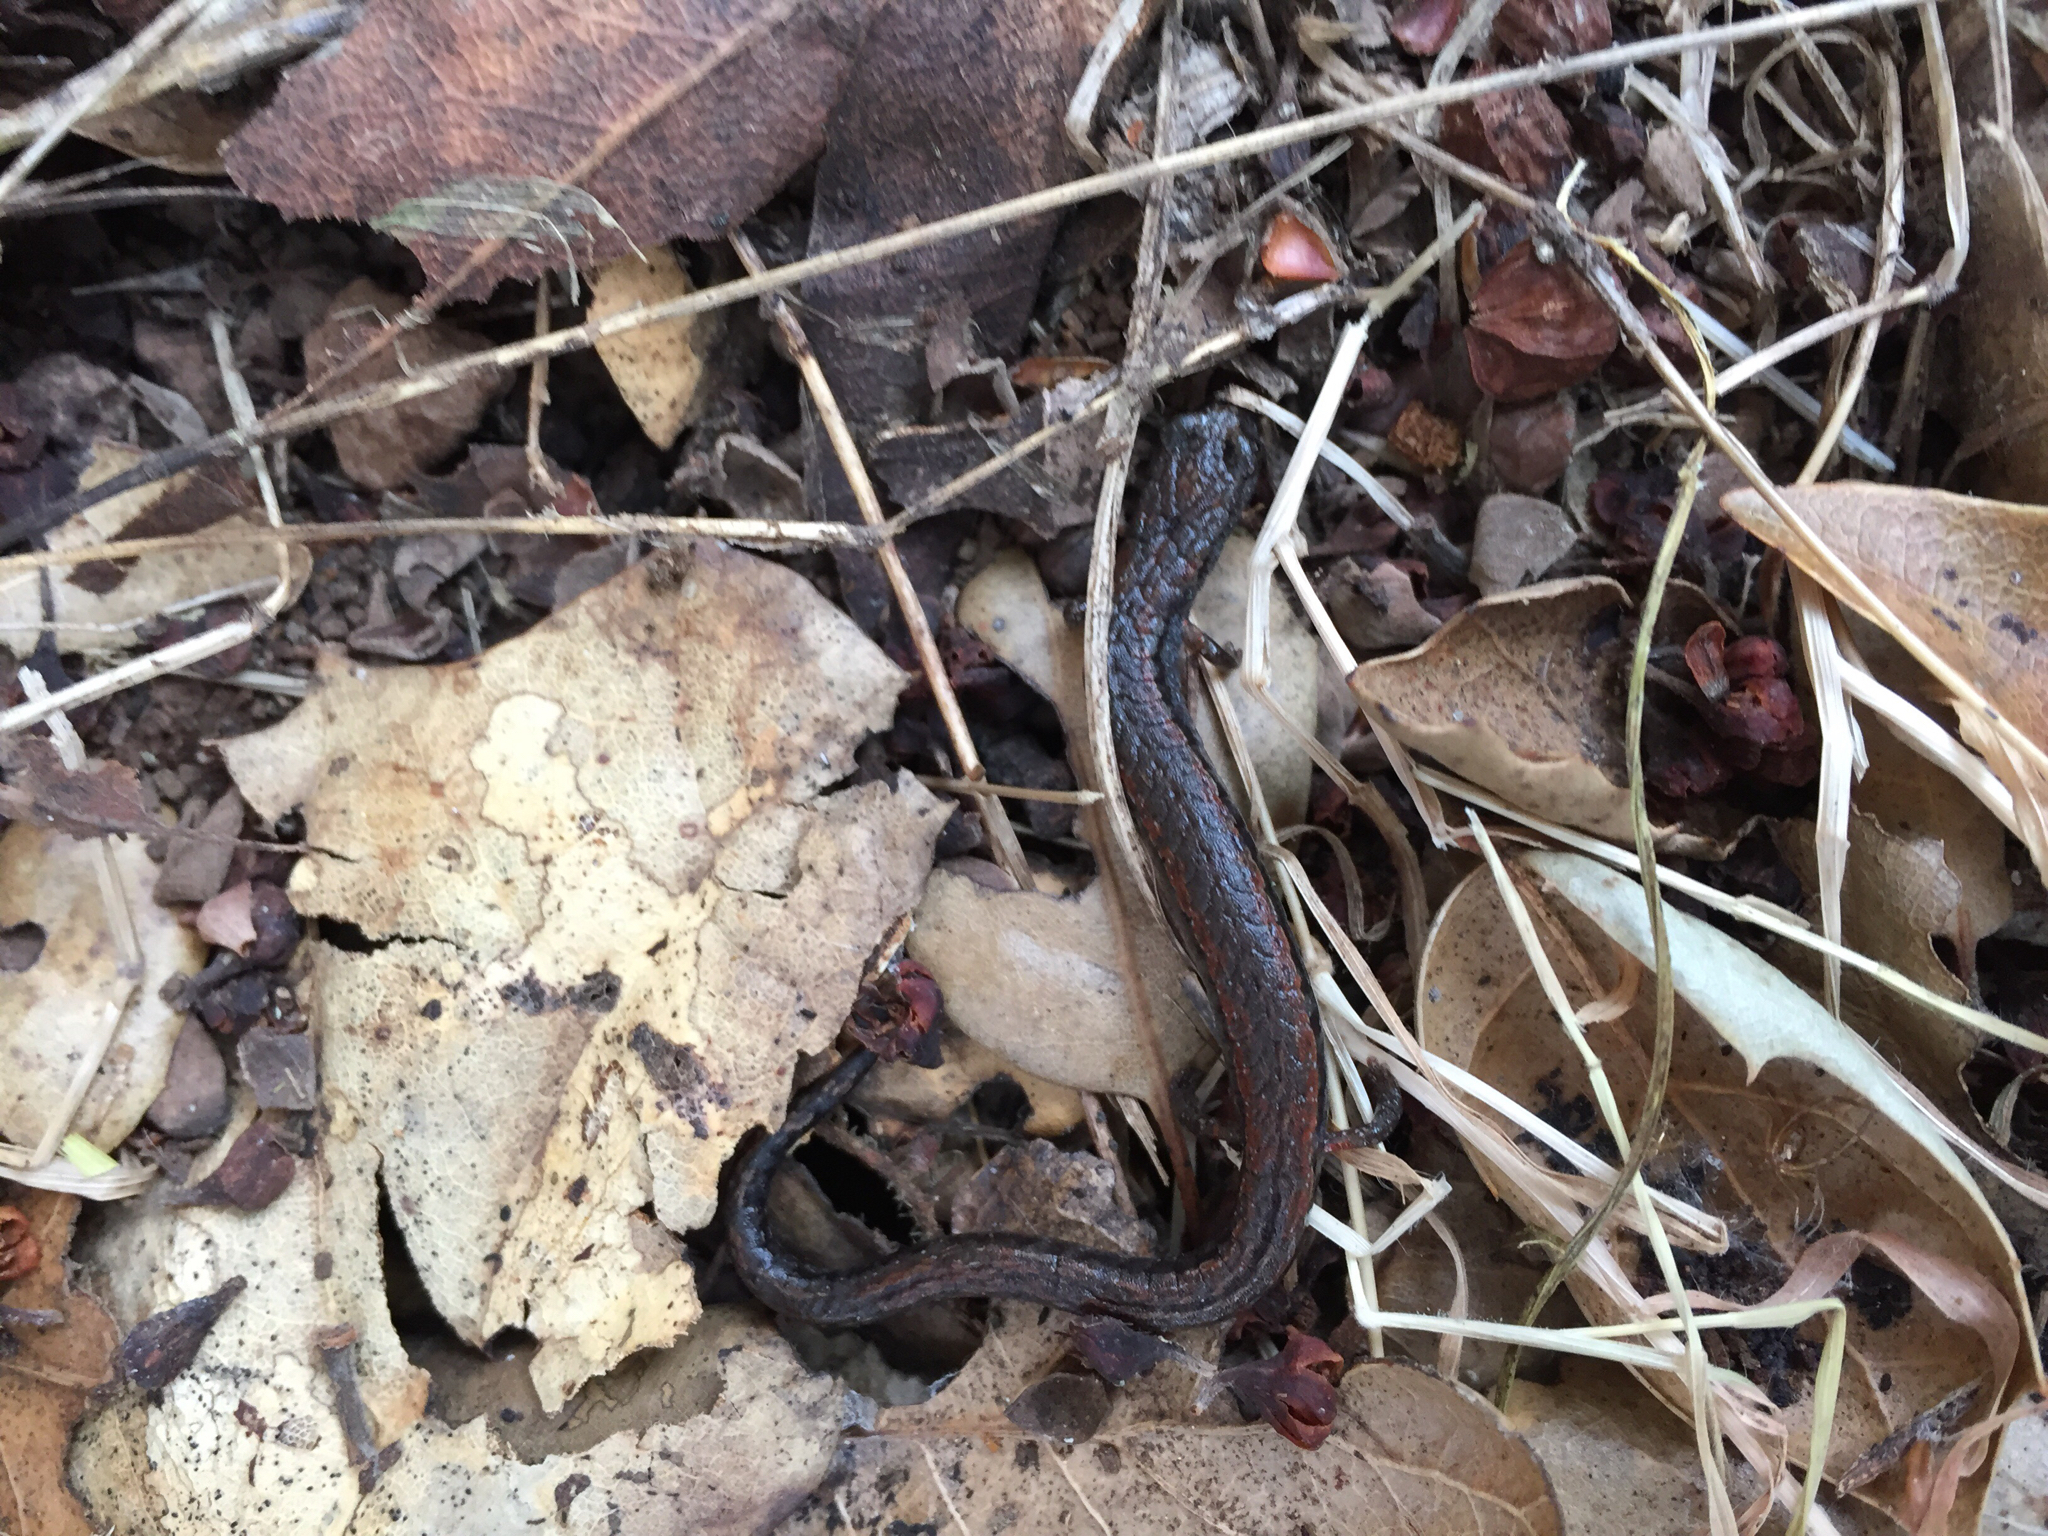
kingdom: Animalia
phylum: Chordata
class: Amphibia
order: Caudata
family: Plethodontidae
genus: Batrachoseps
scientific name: Batrachoseps attenuatus
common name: California slender salamander
